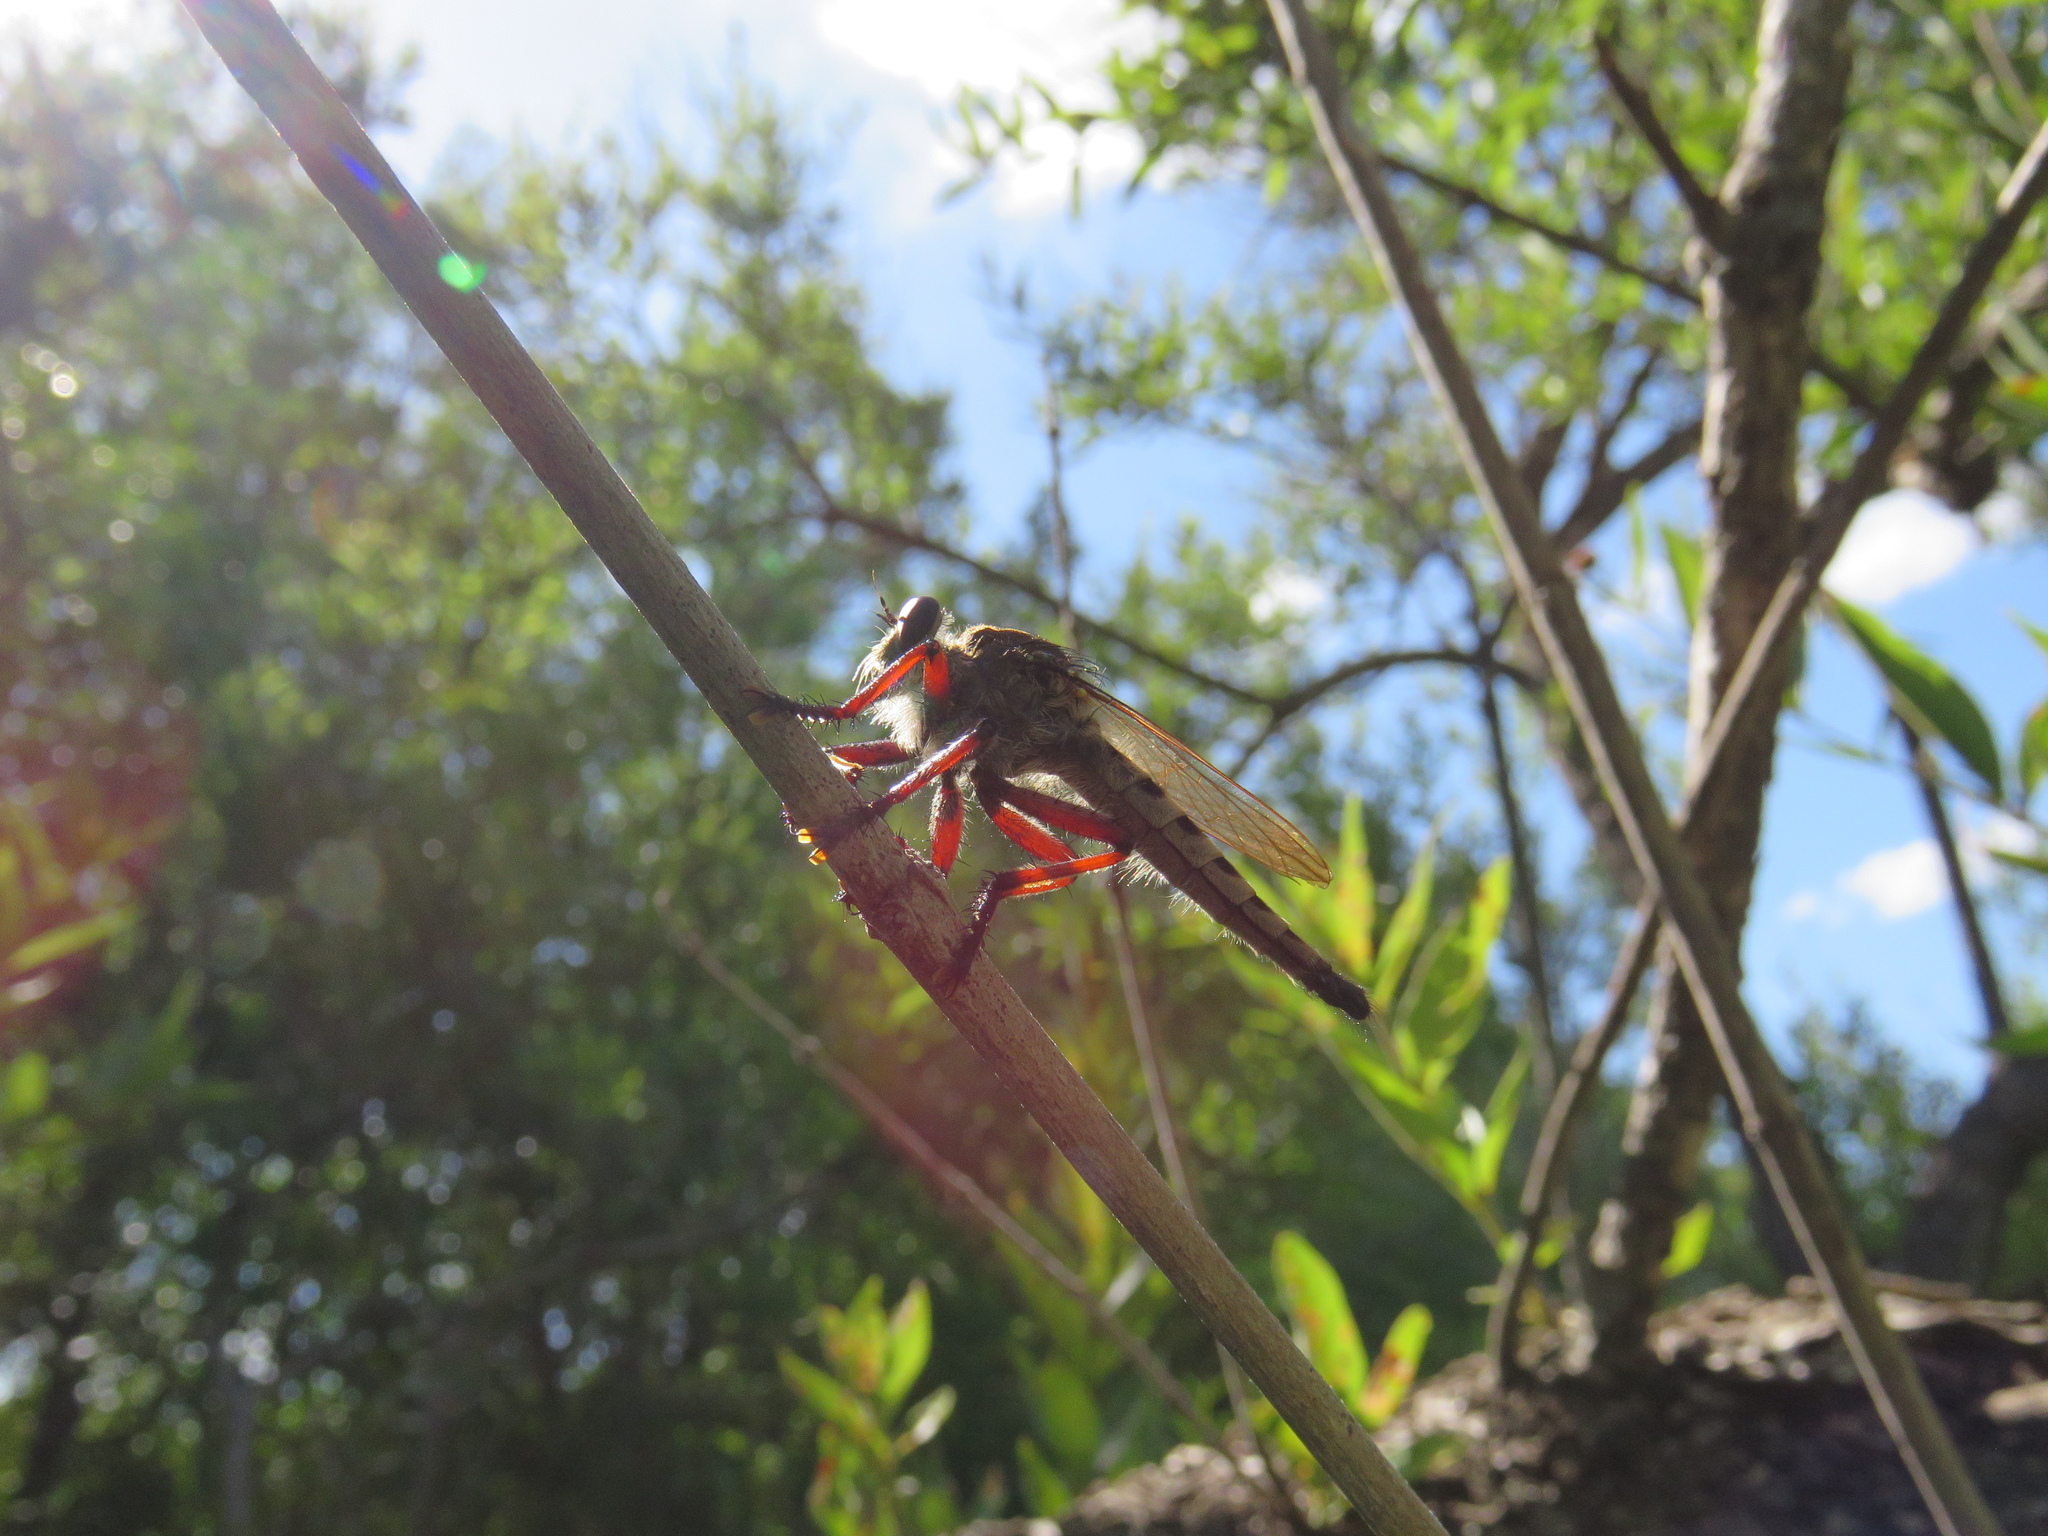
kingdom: Animalia
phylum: Arthropoda
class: Insecta
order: Diptera
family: Asilidae
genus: Promachus
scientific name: Promachus hinei
